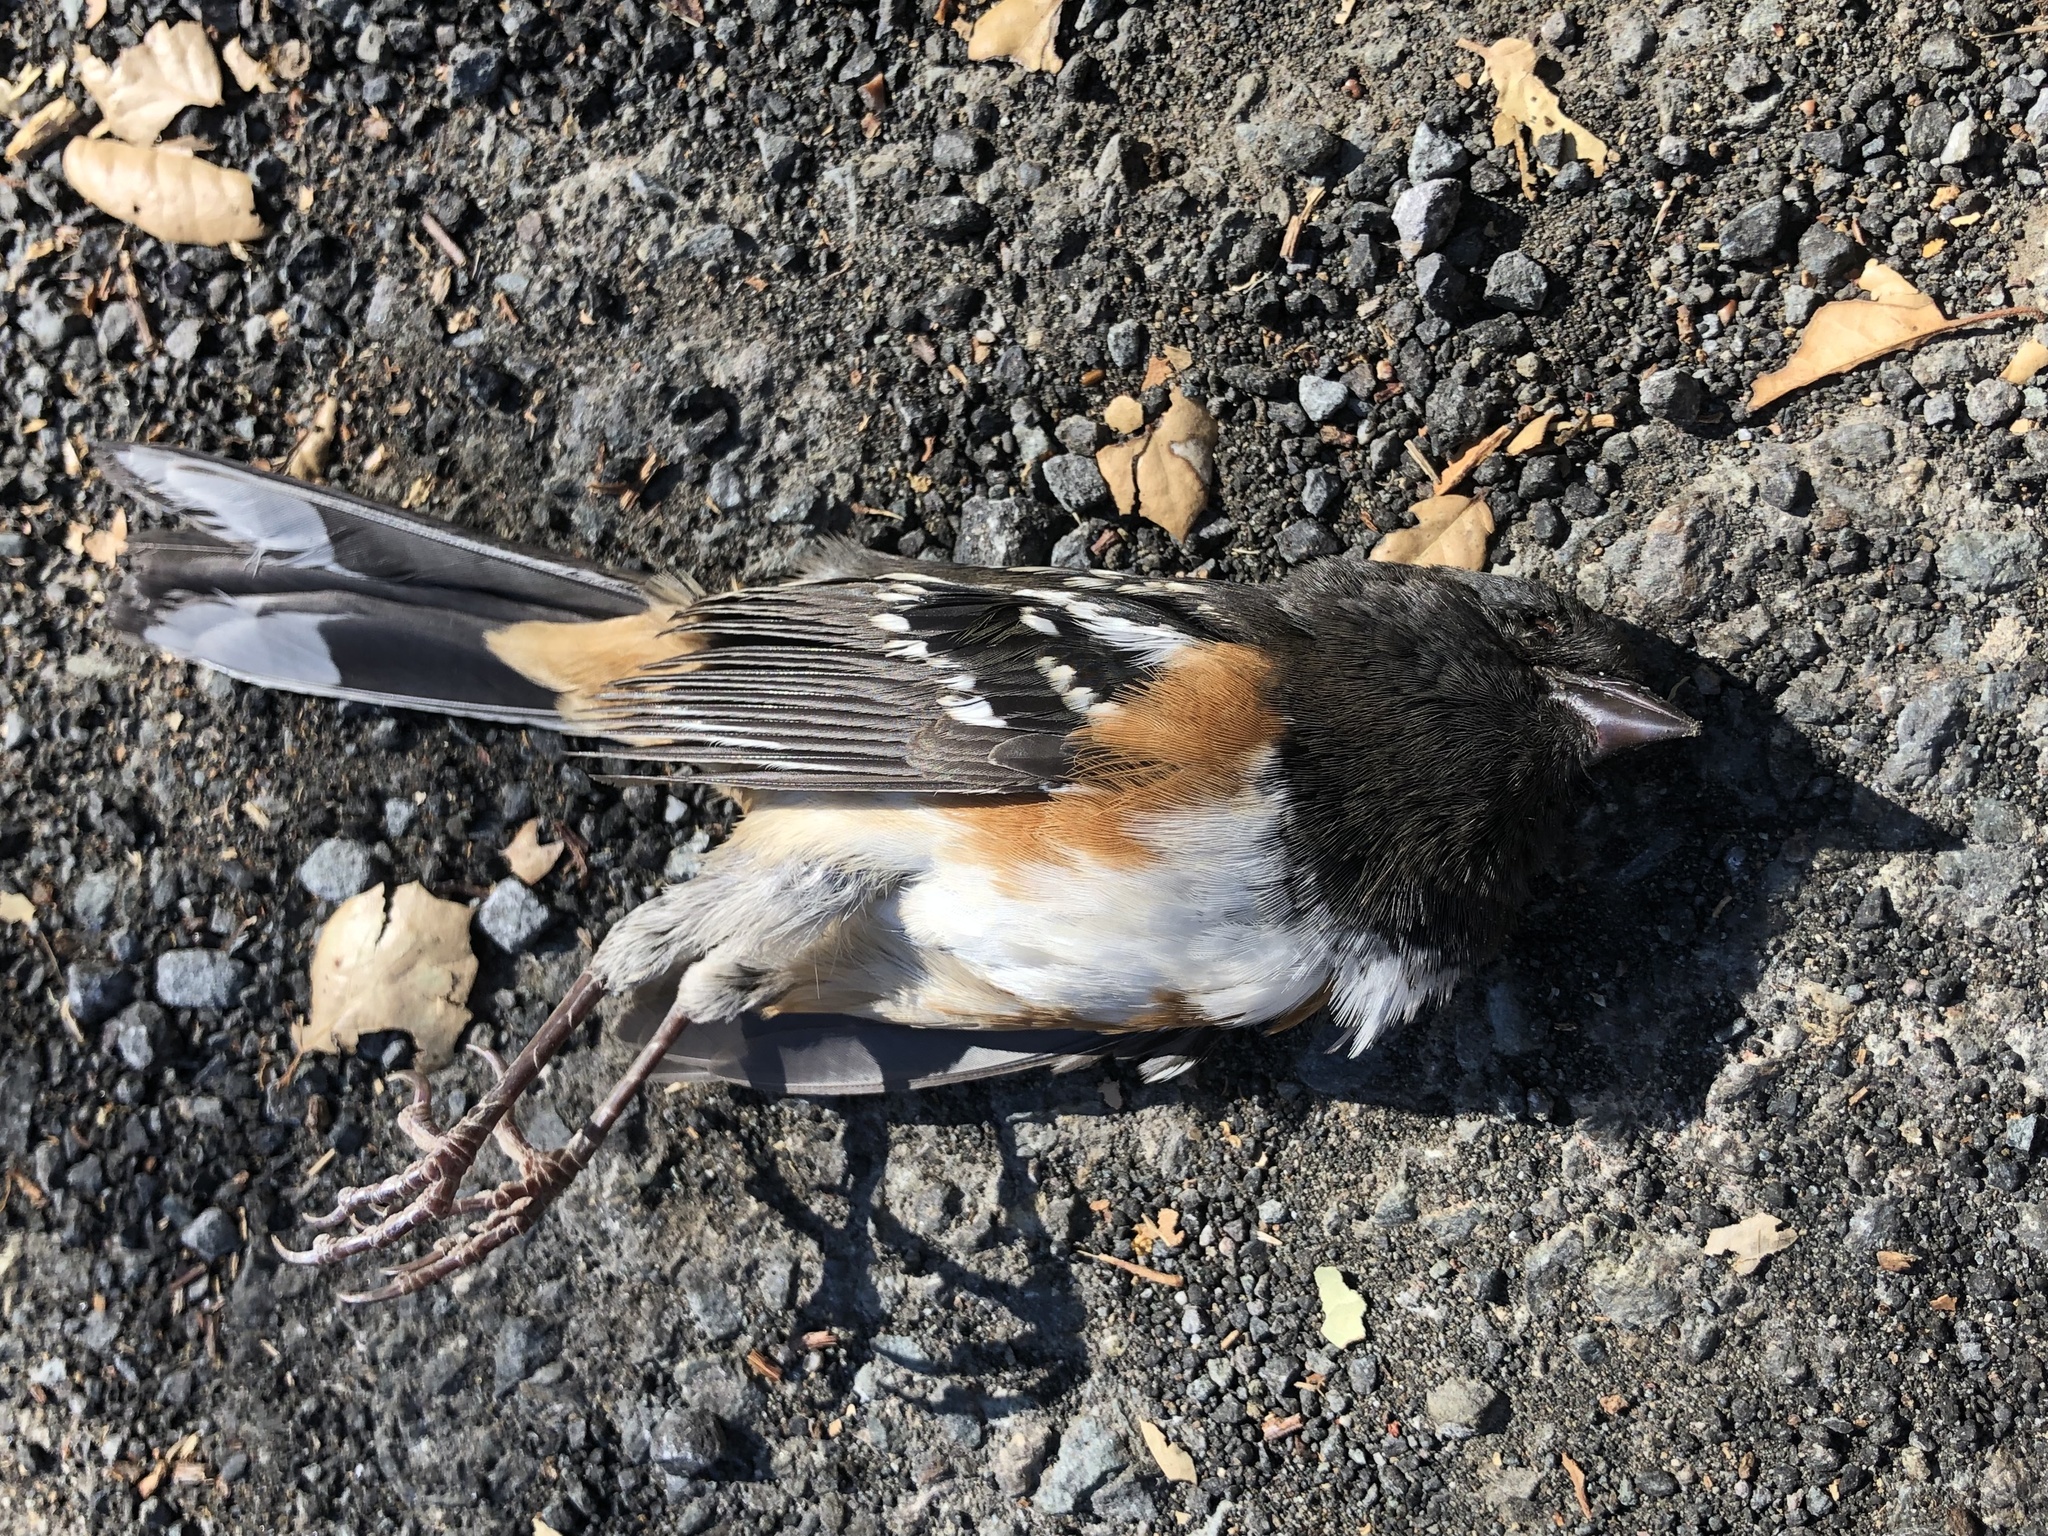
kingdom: Animalia
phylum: Chordata
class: Aves
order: Passeriformes
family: Passerellidae
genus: Pipilo
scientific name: Pipilo maculatus
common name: Spotted towhee
